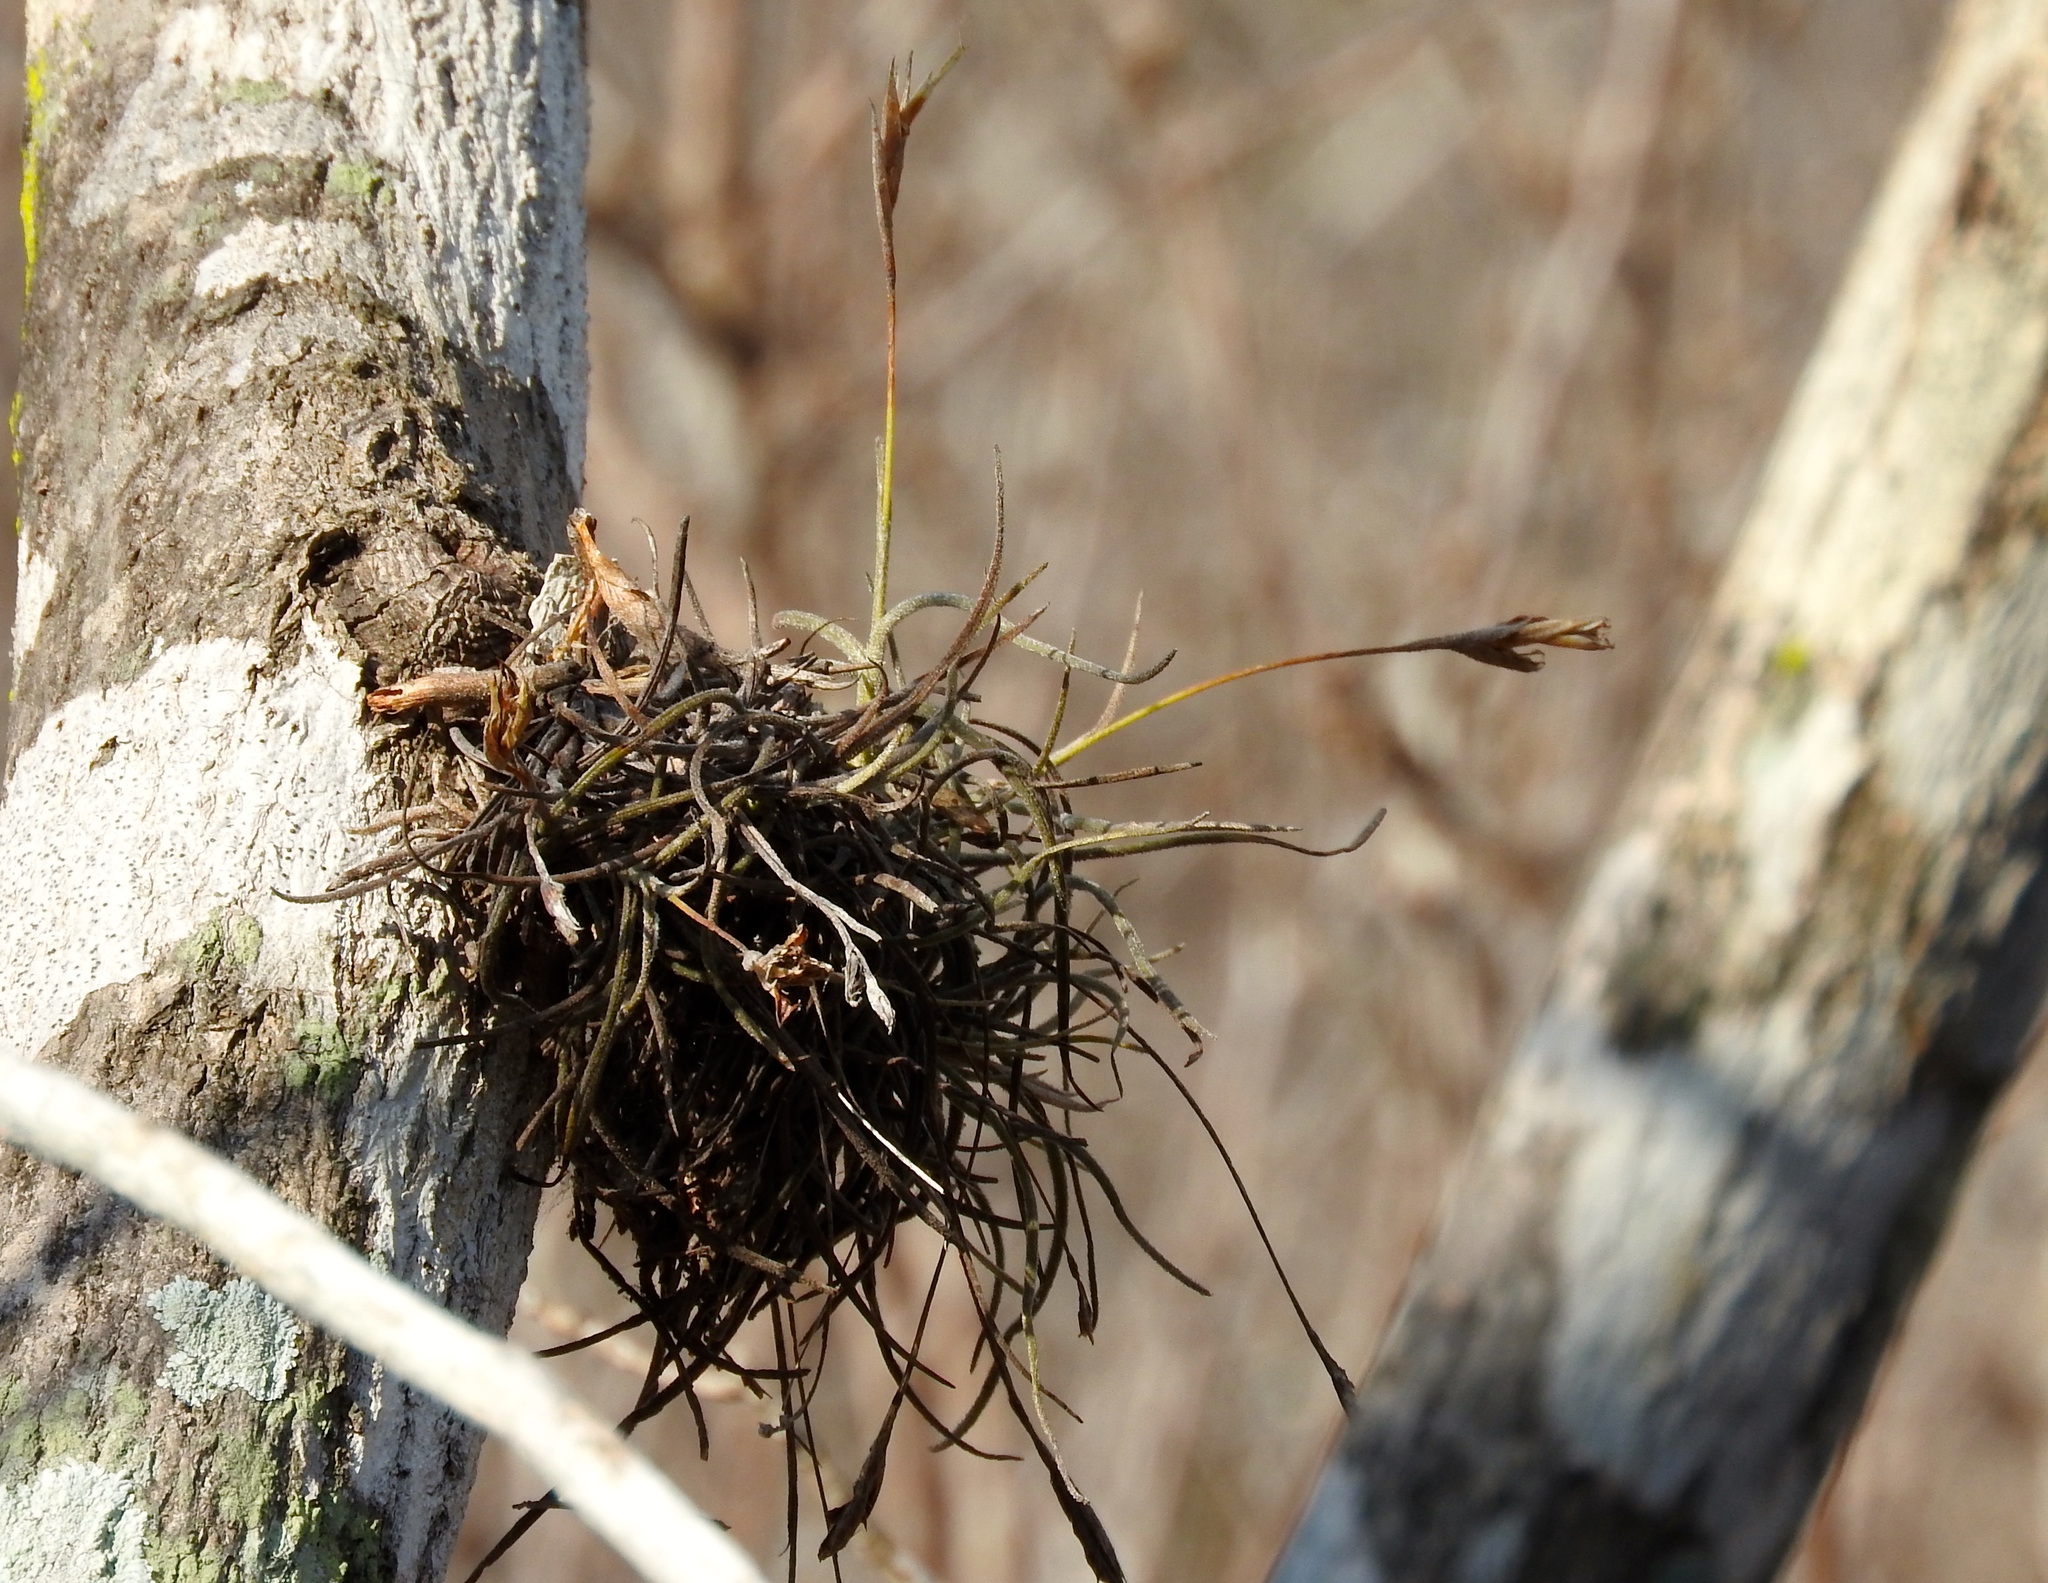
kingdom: Plantae
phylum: Tracheophyta
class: Liliopsida
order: Poales
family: Bromeliaceae
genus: Tillandsia
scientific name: Tillandsia recurvata
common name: Small ballmoss
